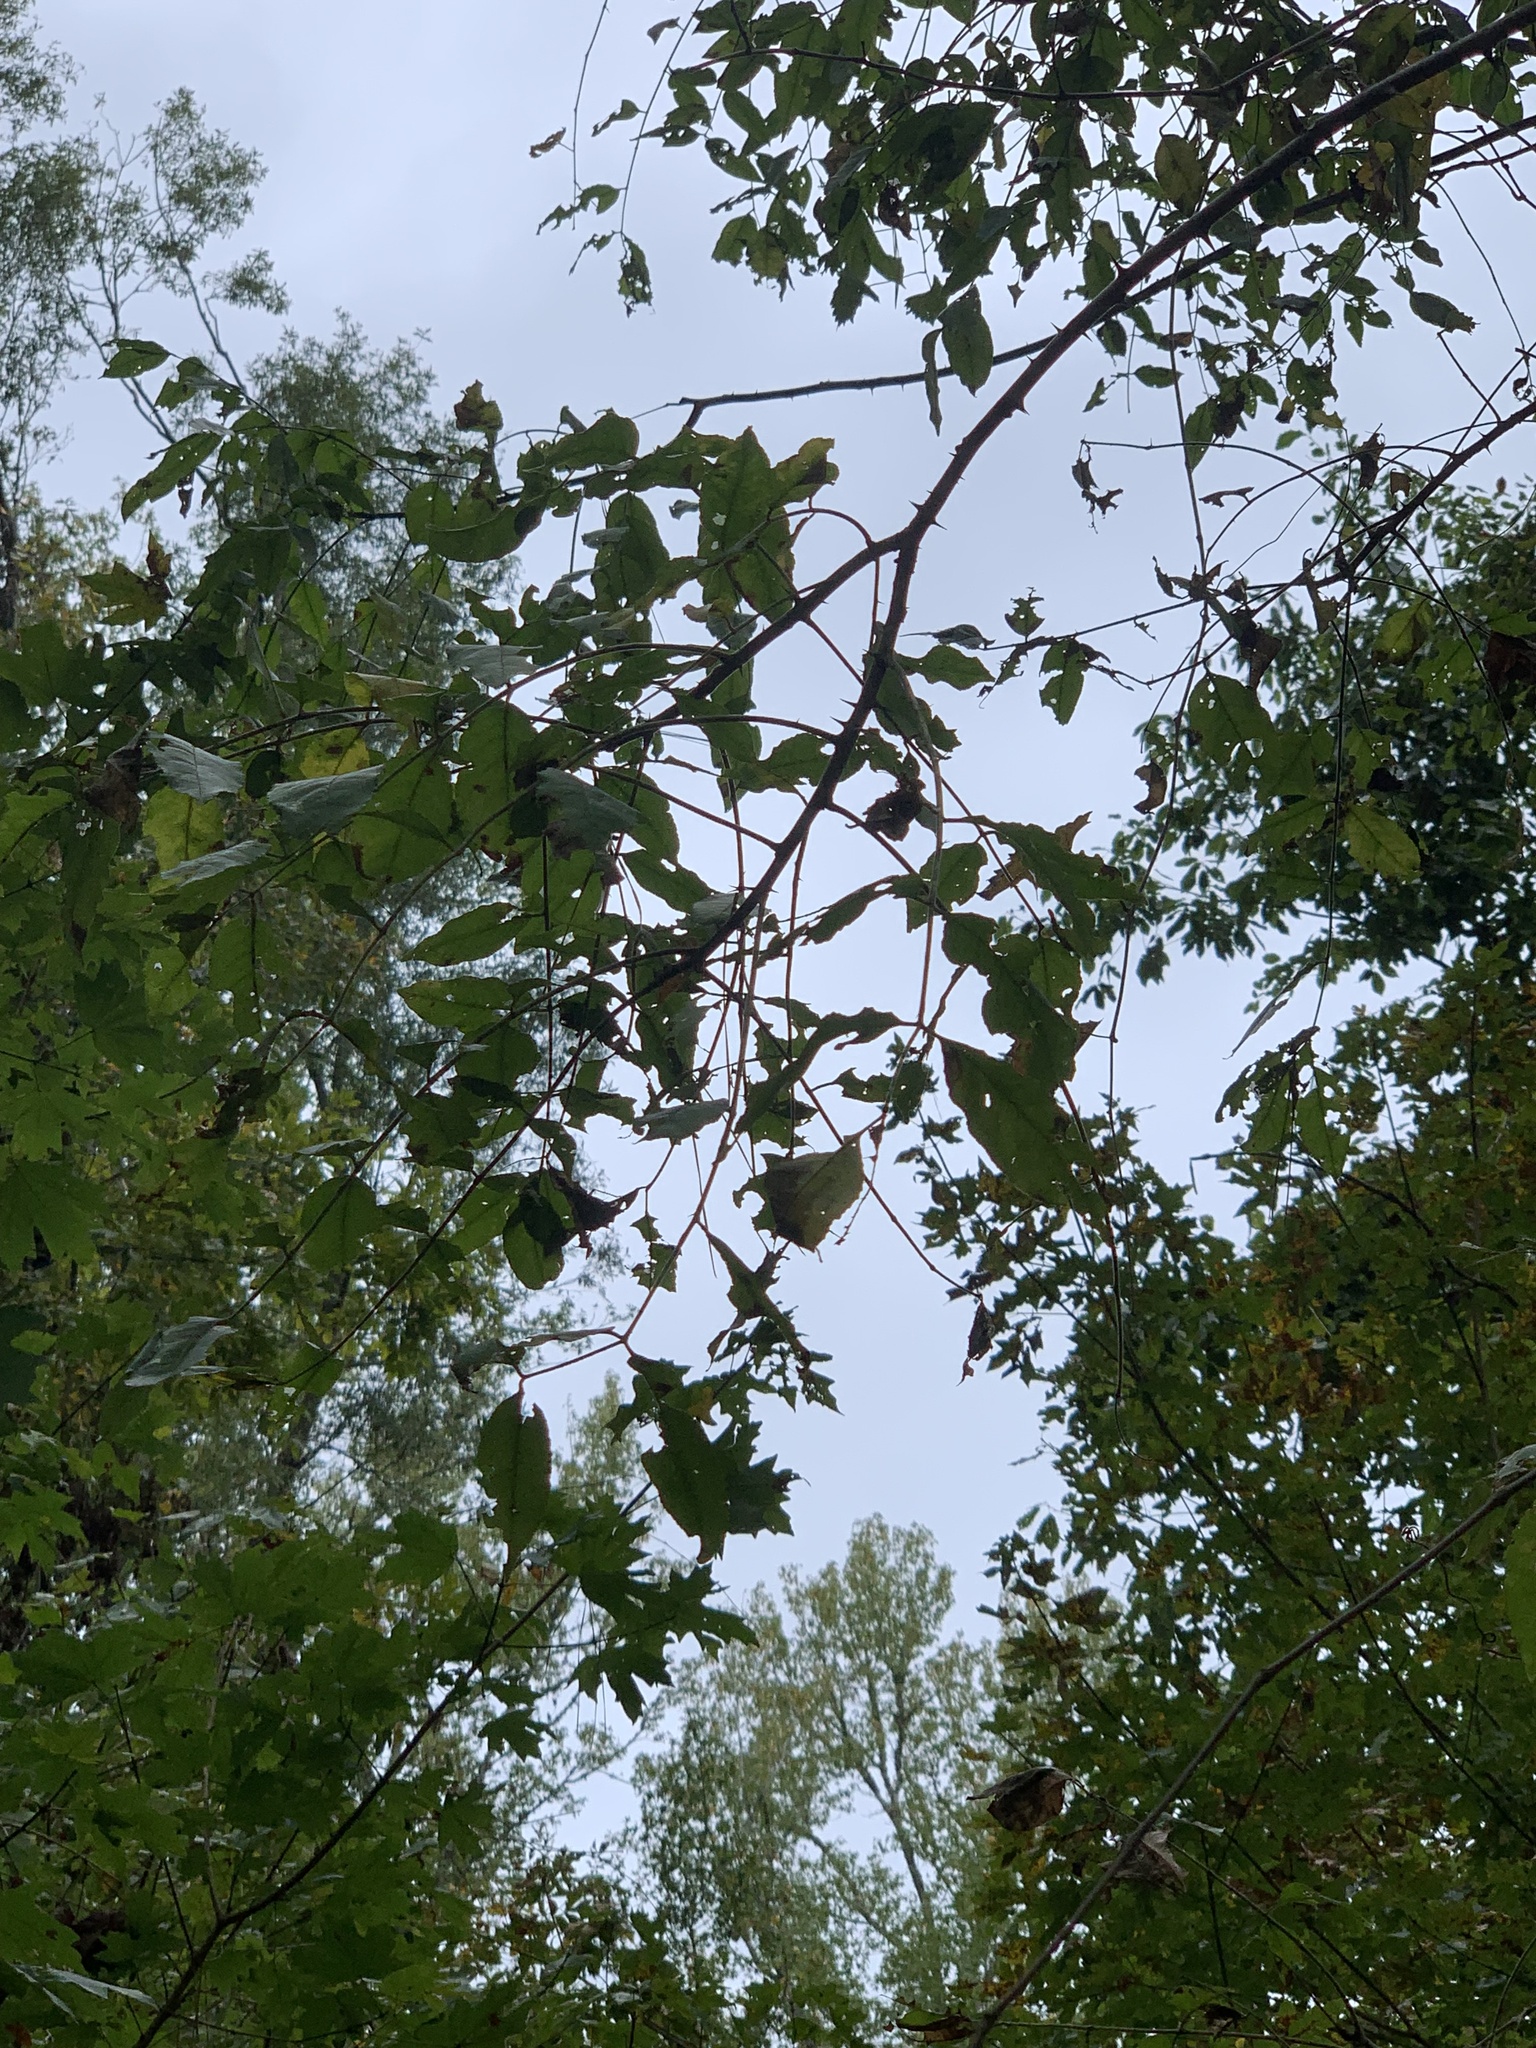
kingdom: Plantae
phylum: Tracheophyta
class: Magnoliopsida
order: Sapindales
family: Rutaceae
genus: Zanthoxylum
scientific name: Zanthoxylum clava-herculis
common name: Hercules'-club
